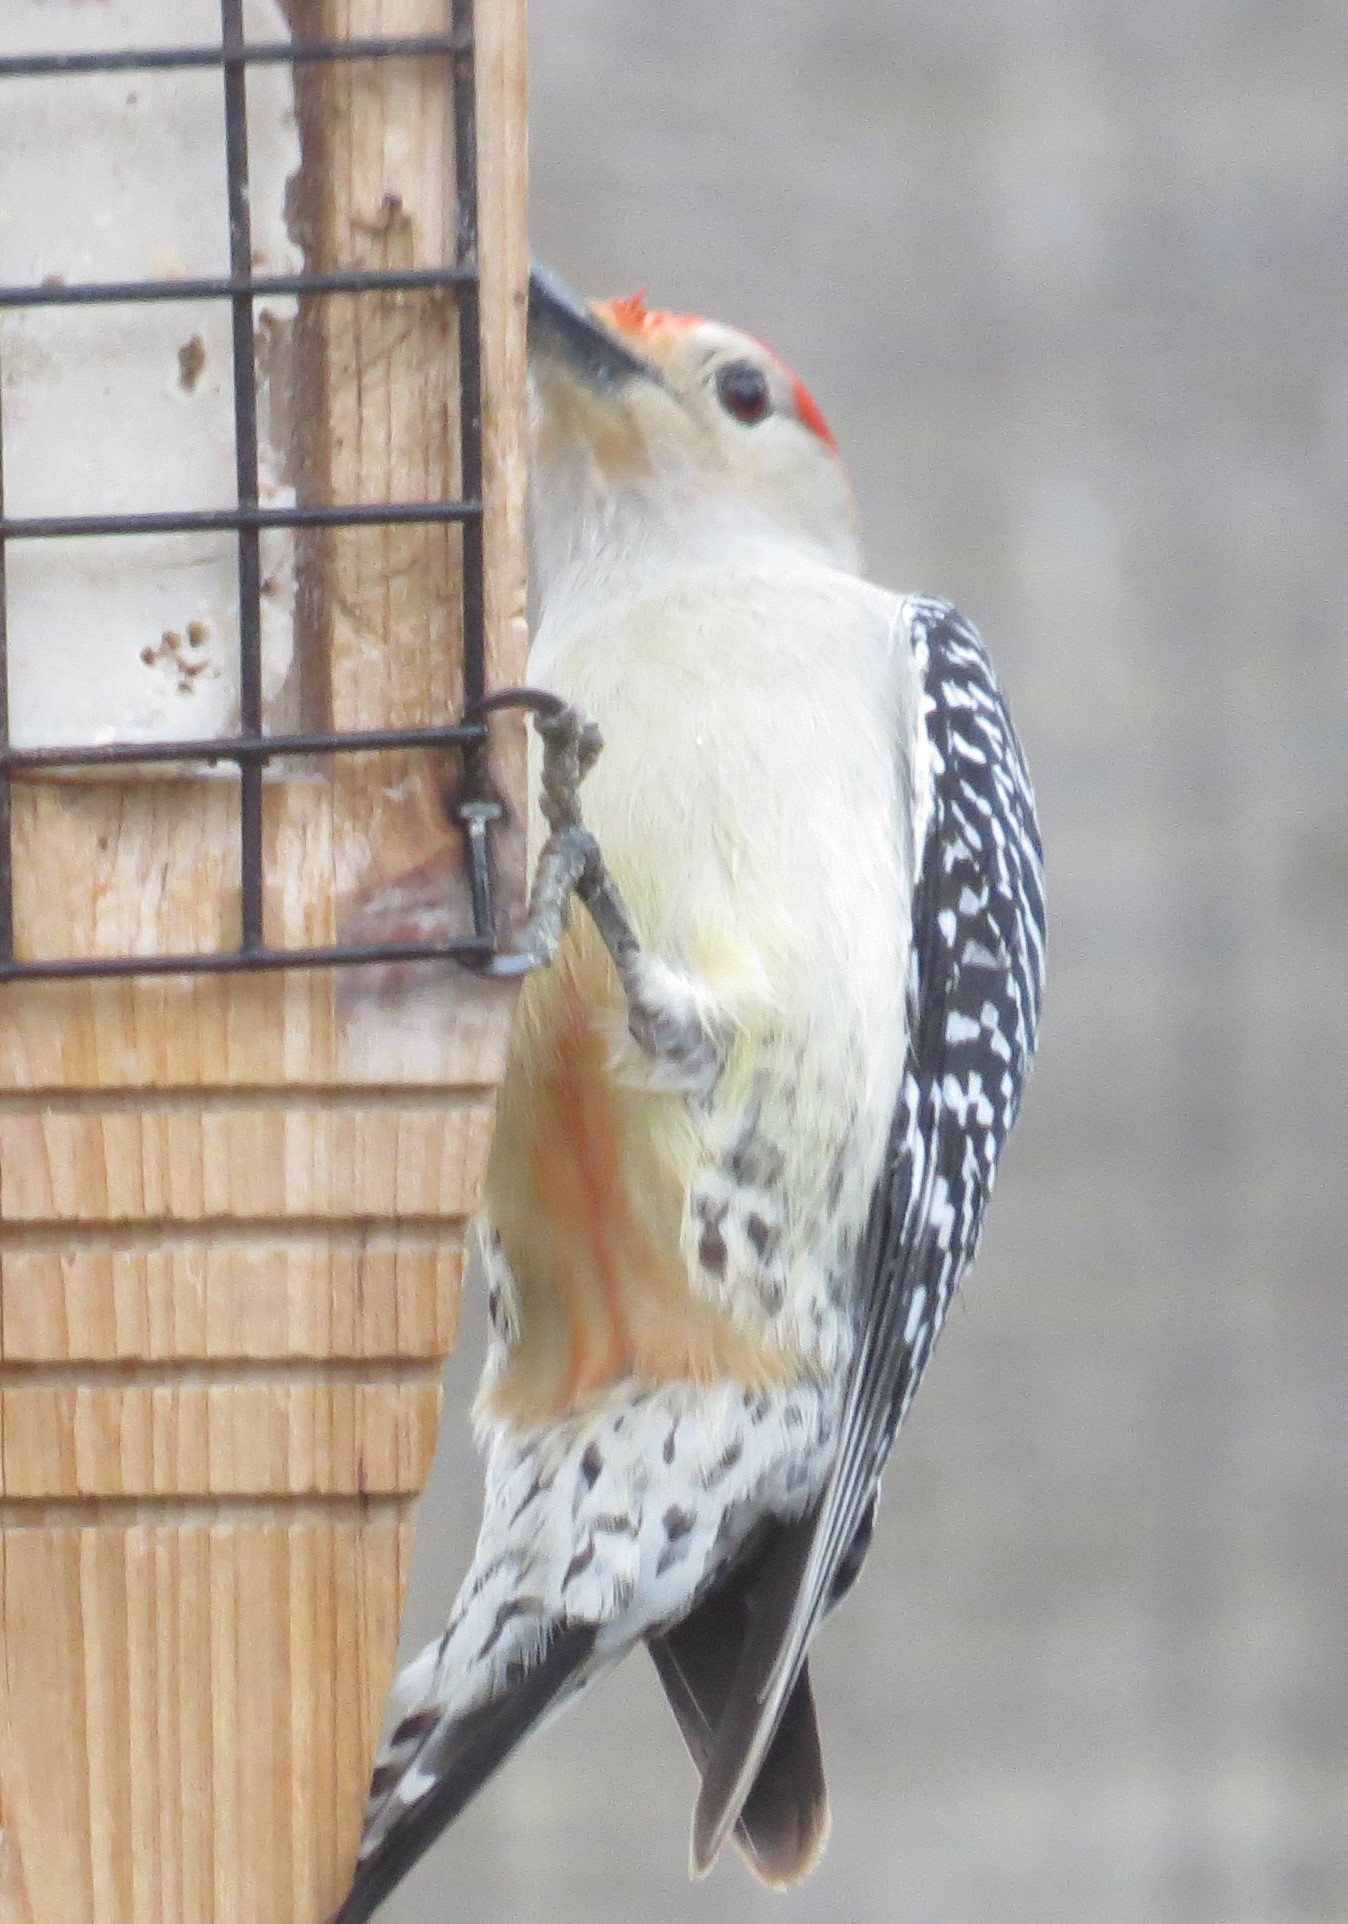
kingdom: Animalia
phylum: Chordata
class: Aves
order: Piciformes
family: Picidae
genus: Melanerpes
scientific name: Melanerpes carolinus
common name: Red-bellied woodpecker
